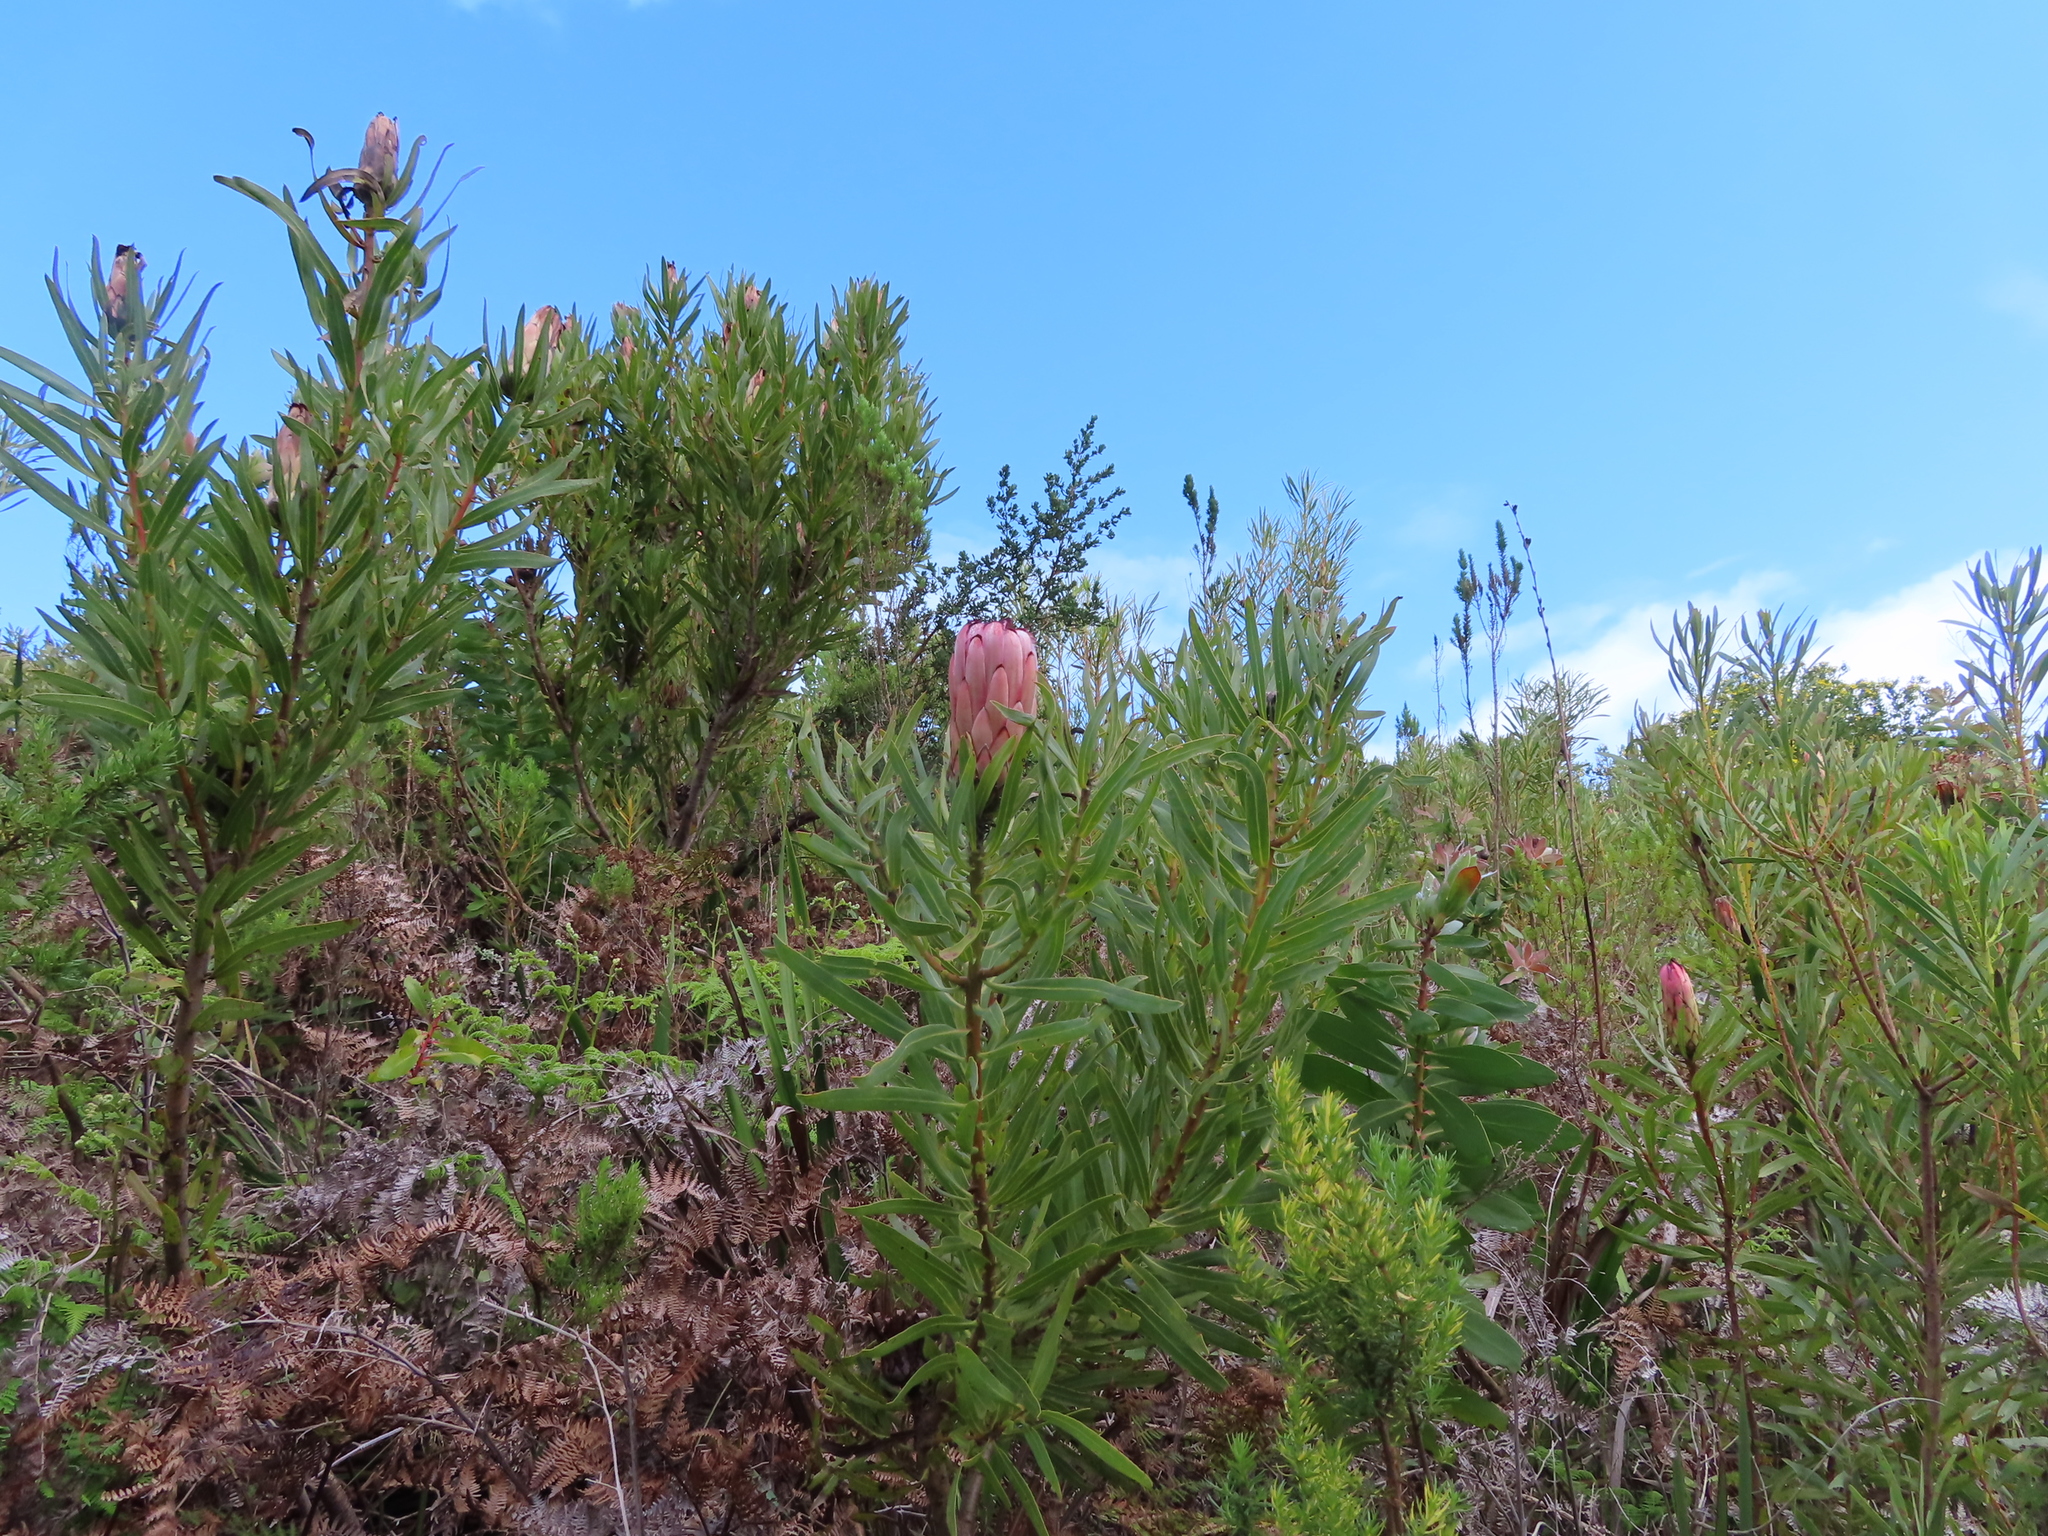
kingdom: Plantae
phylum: Tracheophyta
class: Magnoliopsida
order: Proteales
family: Proteaceae
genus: Protea
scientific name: Protea
